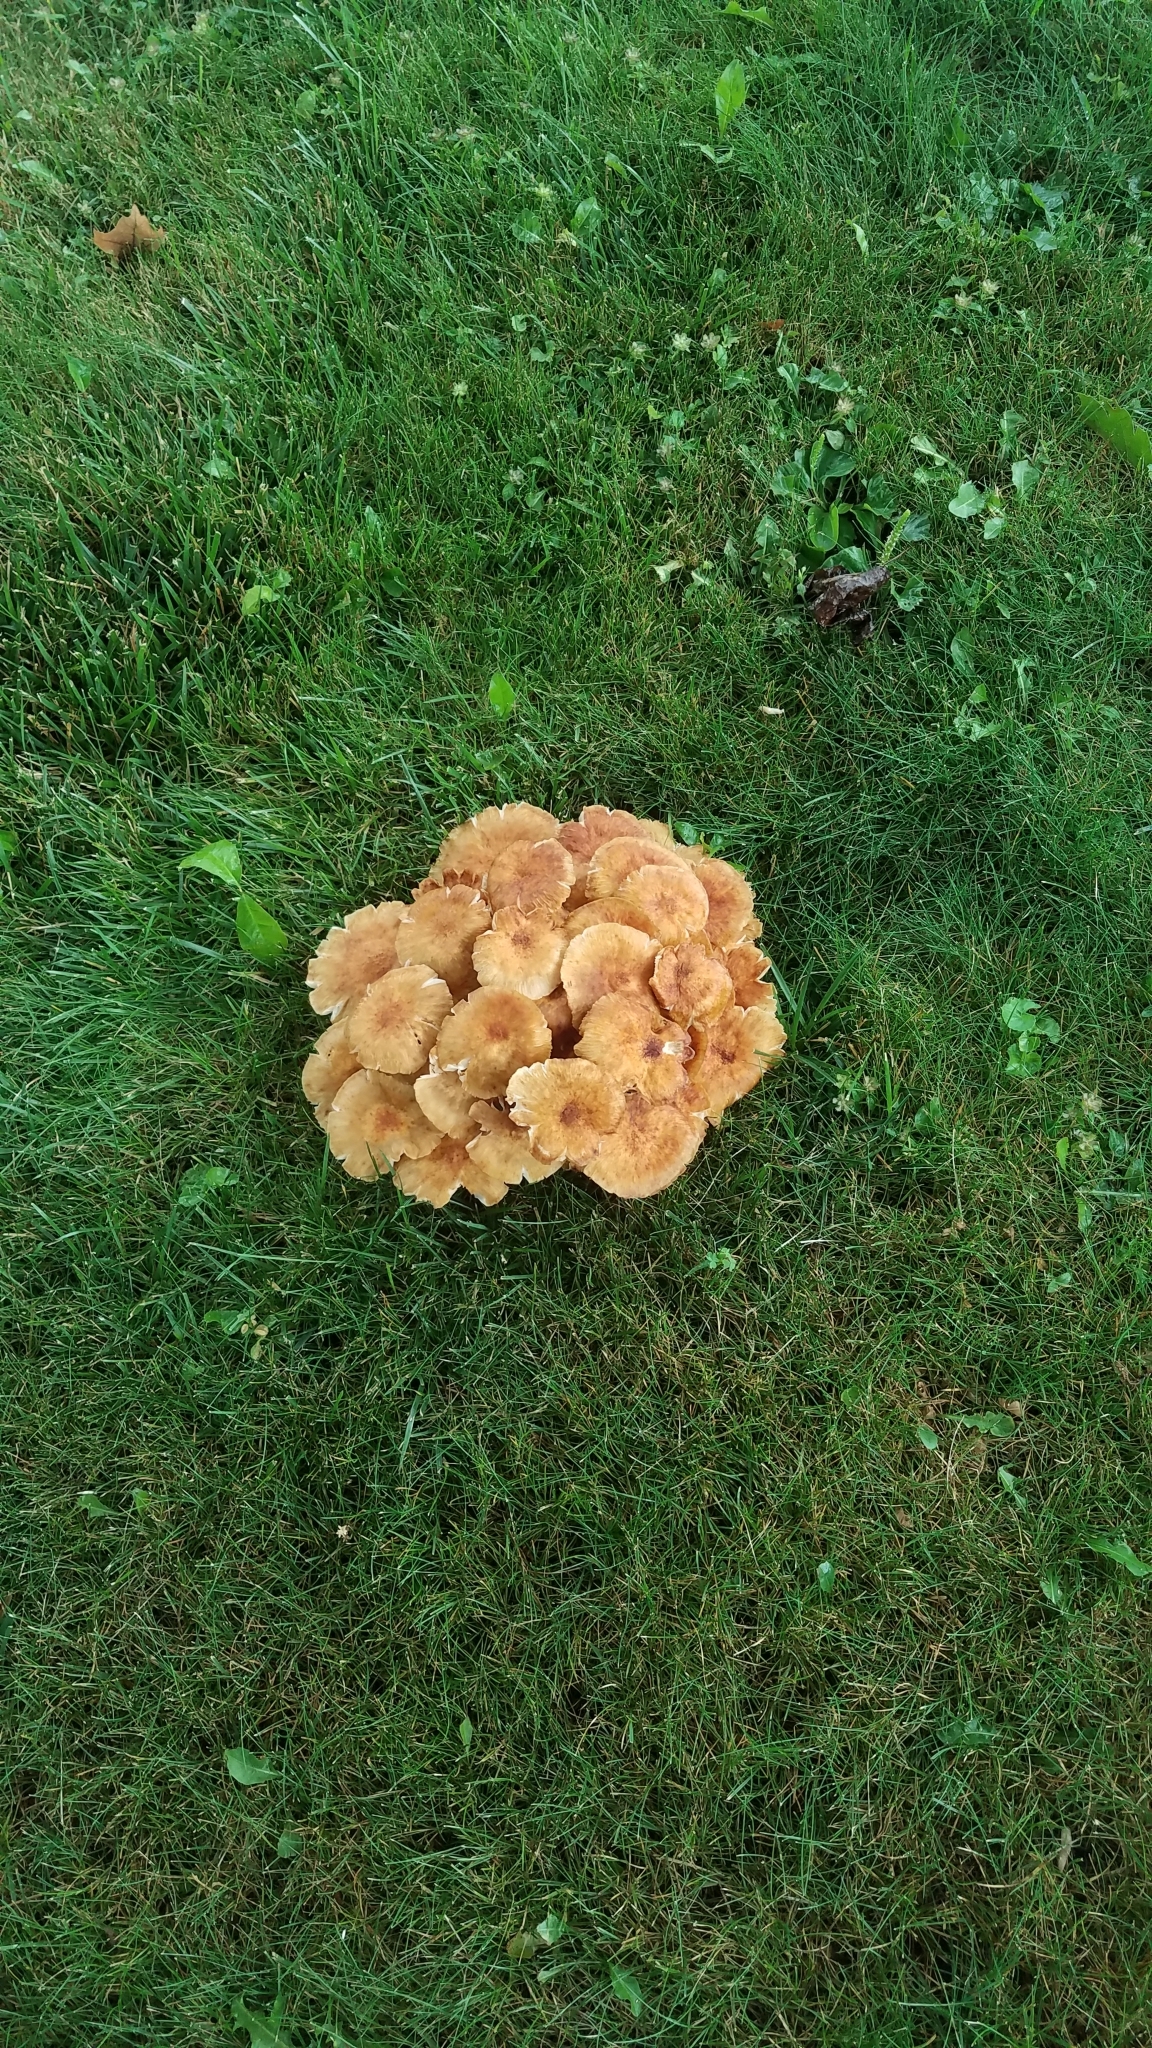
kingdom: Fungi
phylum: Basidiomycota
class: Agaricomycetes
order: Agaricales
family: Physalacriaceae
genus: Desarmillaria
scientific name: Desarmillaria caespitosa
